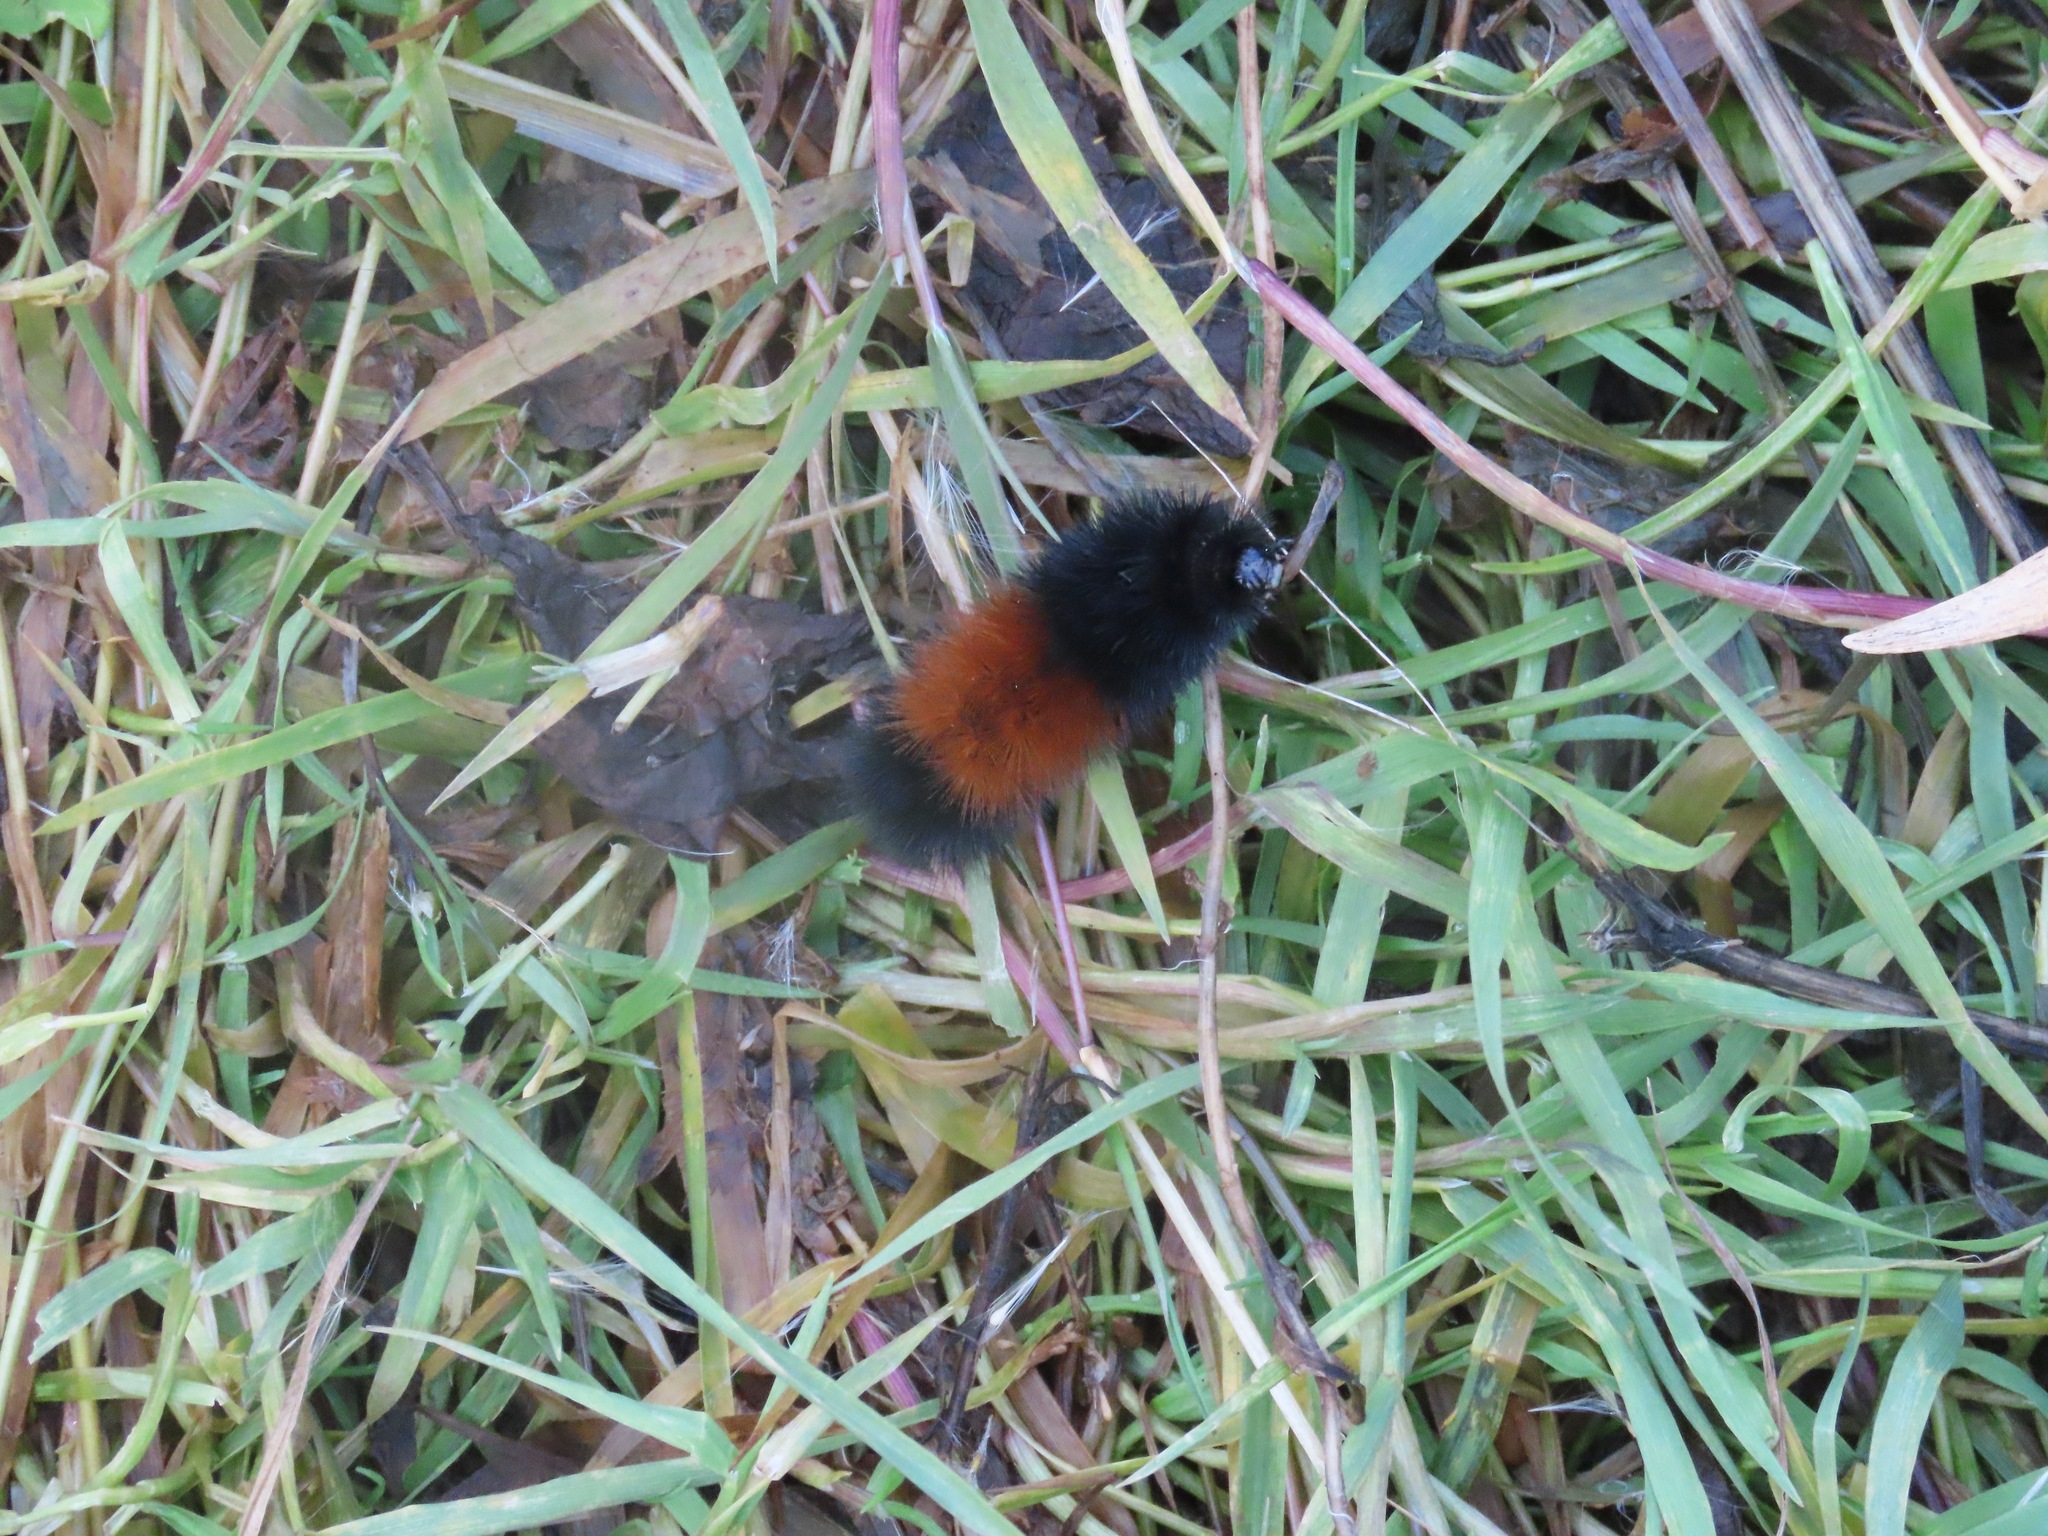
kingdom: Animalia
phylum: Arthropoda
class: Insecta
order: Lepidoptera
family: Erebidae
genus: Pyrrharctia
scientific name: Pyrrharctia isabella
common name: Isabella tiger moth
